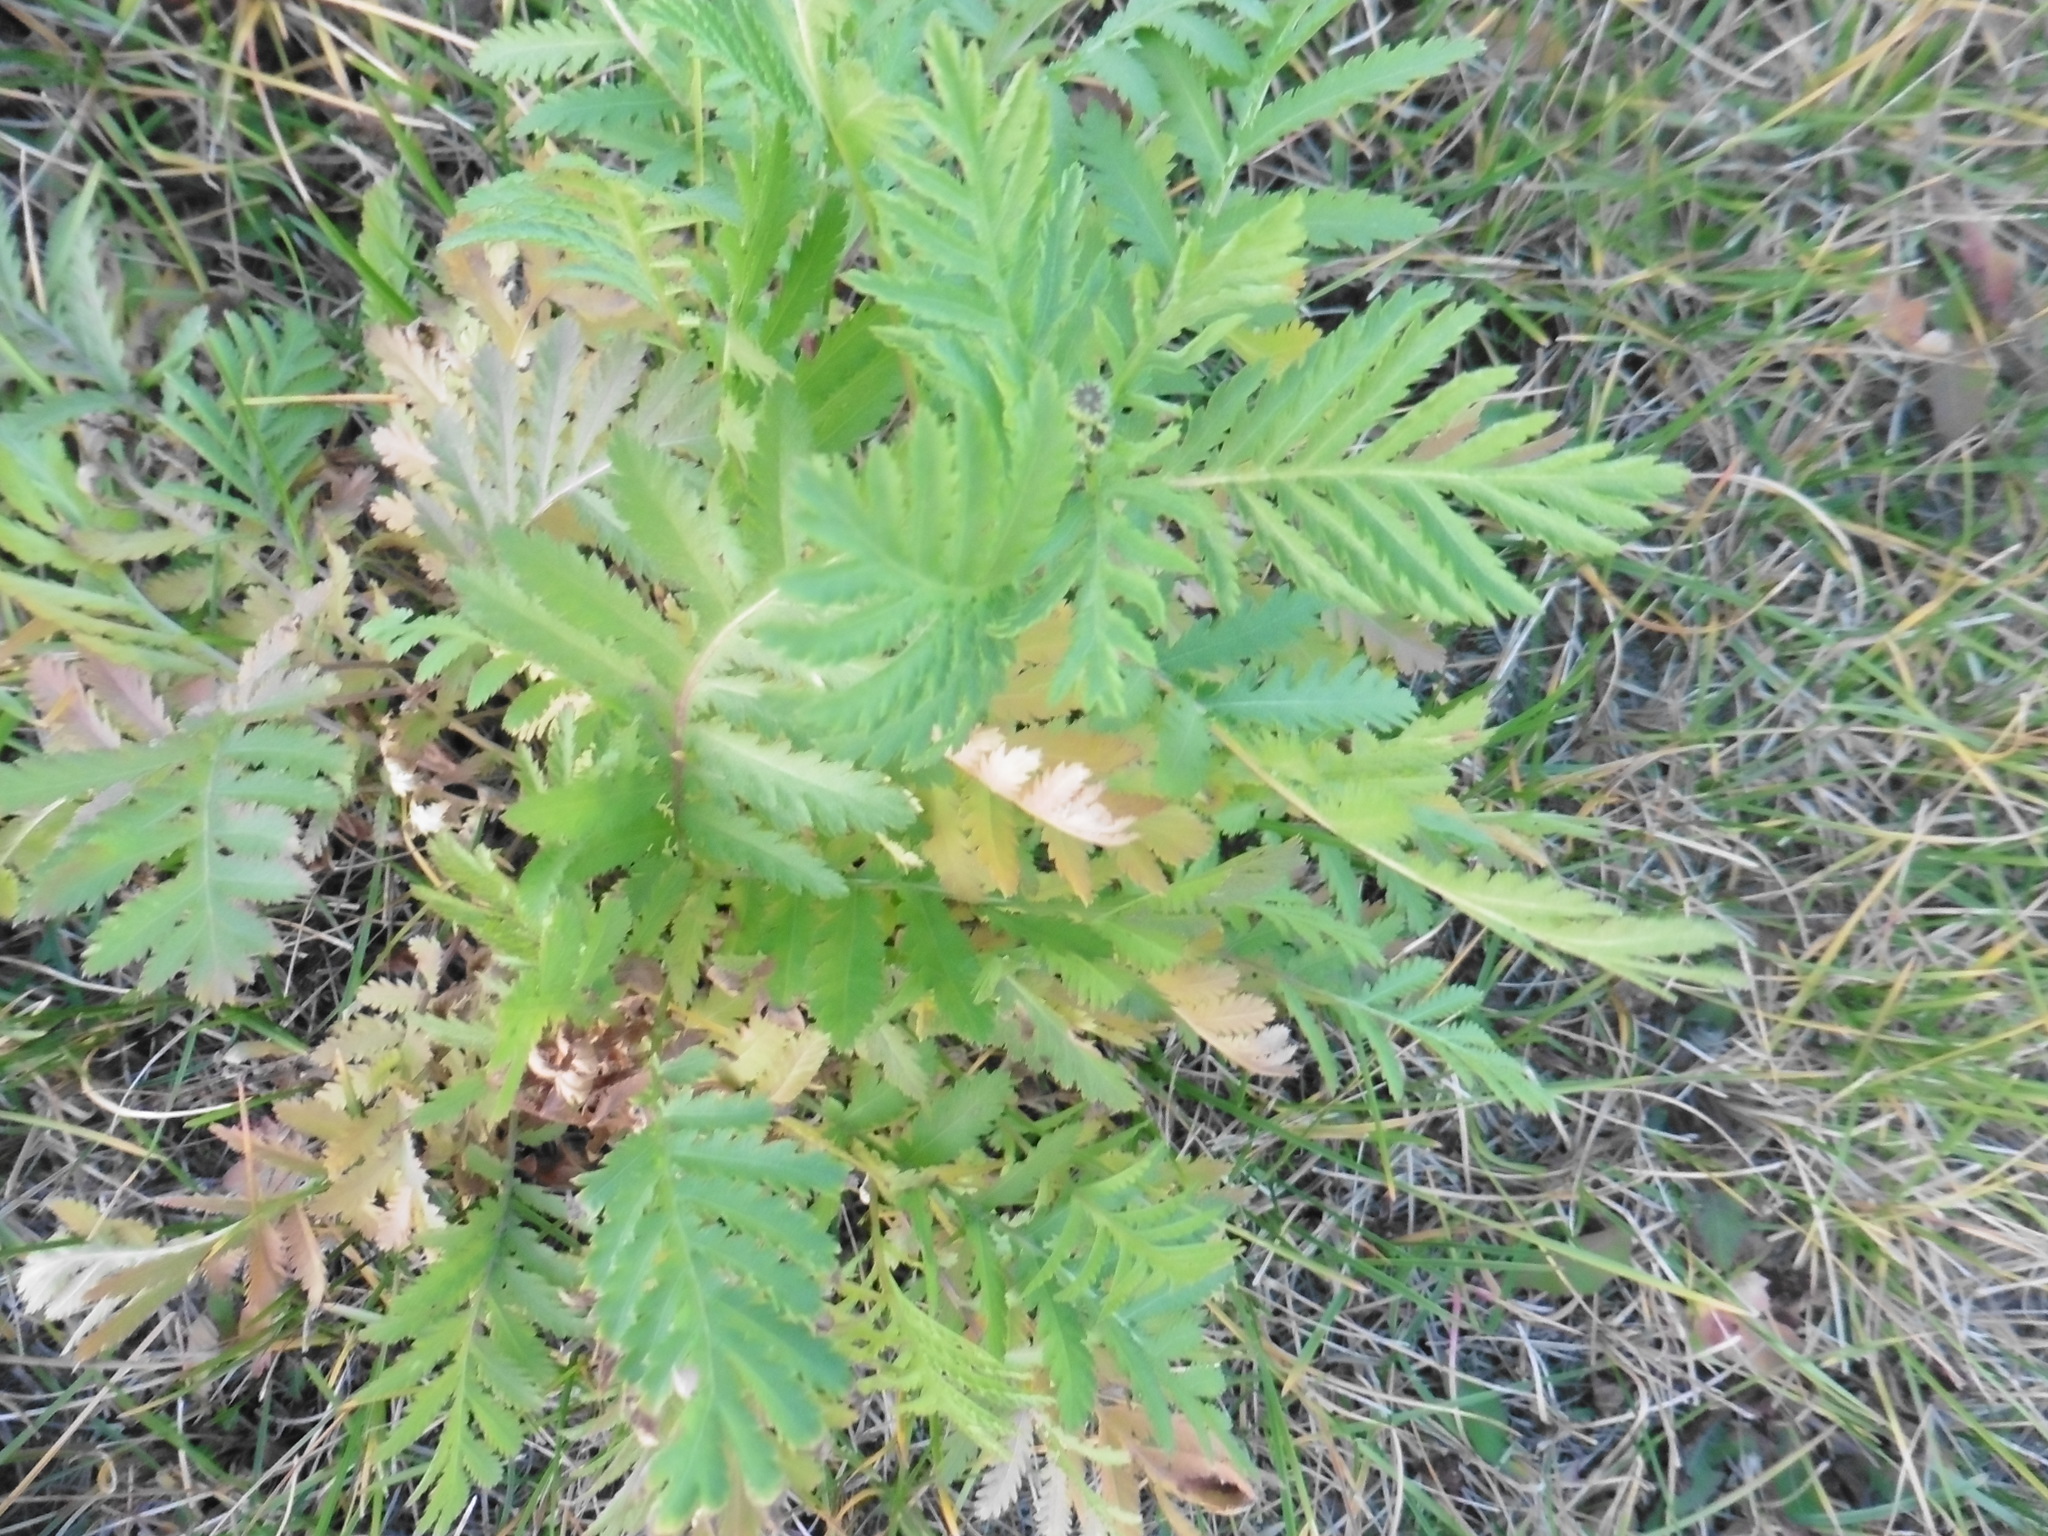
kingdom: Plantae
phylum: Tracheophyta
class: Magnoliopsida
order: Asterales
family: Asteraceae
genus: Tanacetum
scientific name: Tanacetum vulgare
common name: Common tansy
